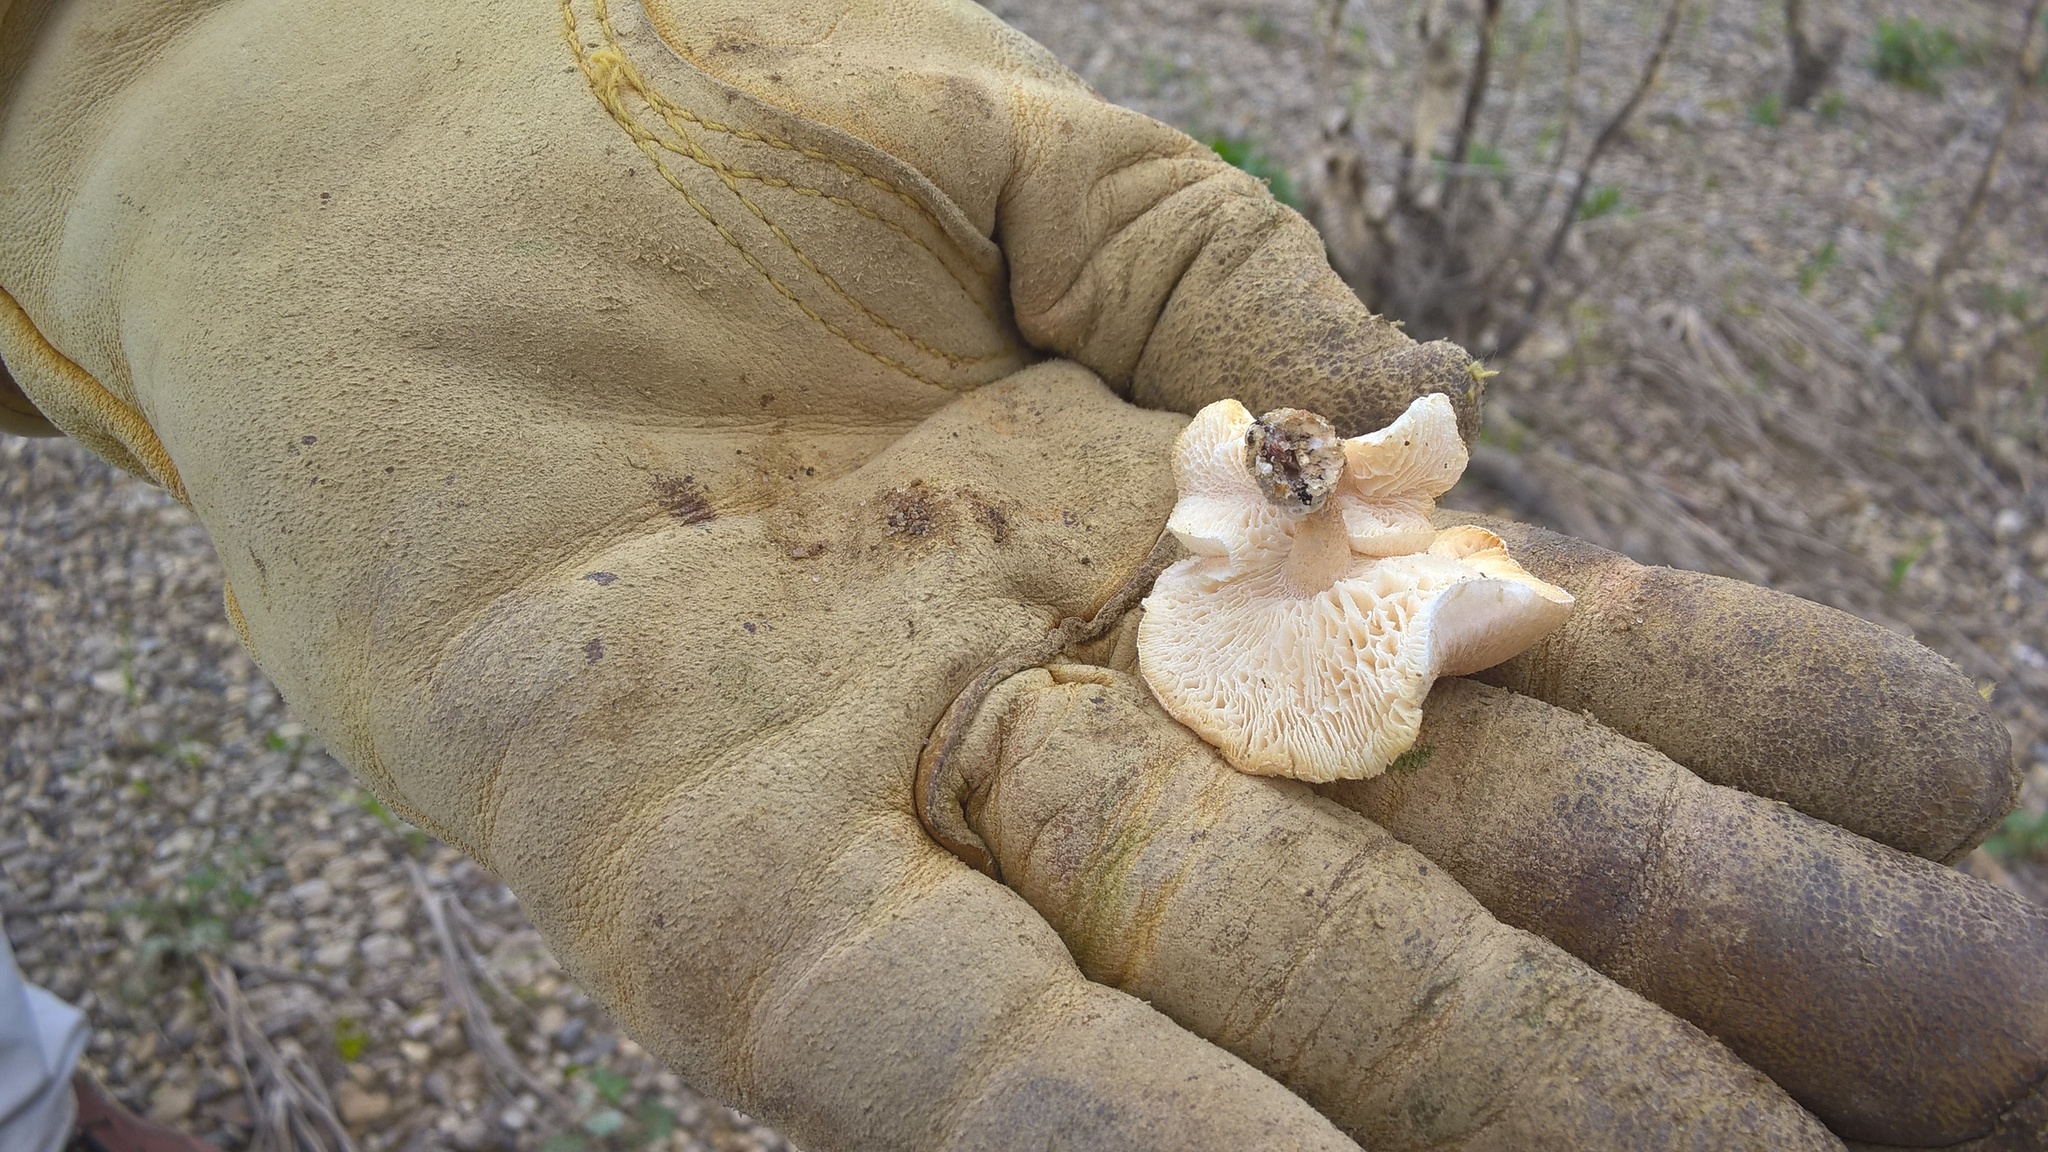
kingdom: Fungi
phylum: Basidiomycota
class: Agaricomycetes
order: Polyporales
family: Polyporaceae
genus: Lentinus
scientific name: Lentinus tigrinus
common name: Tiger sawgill
